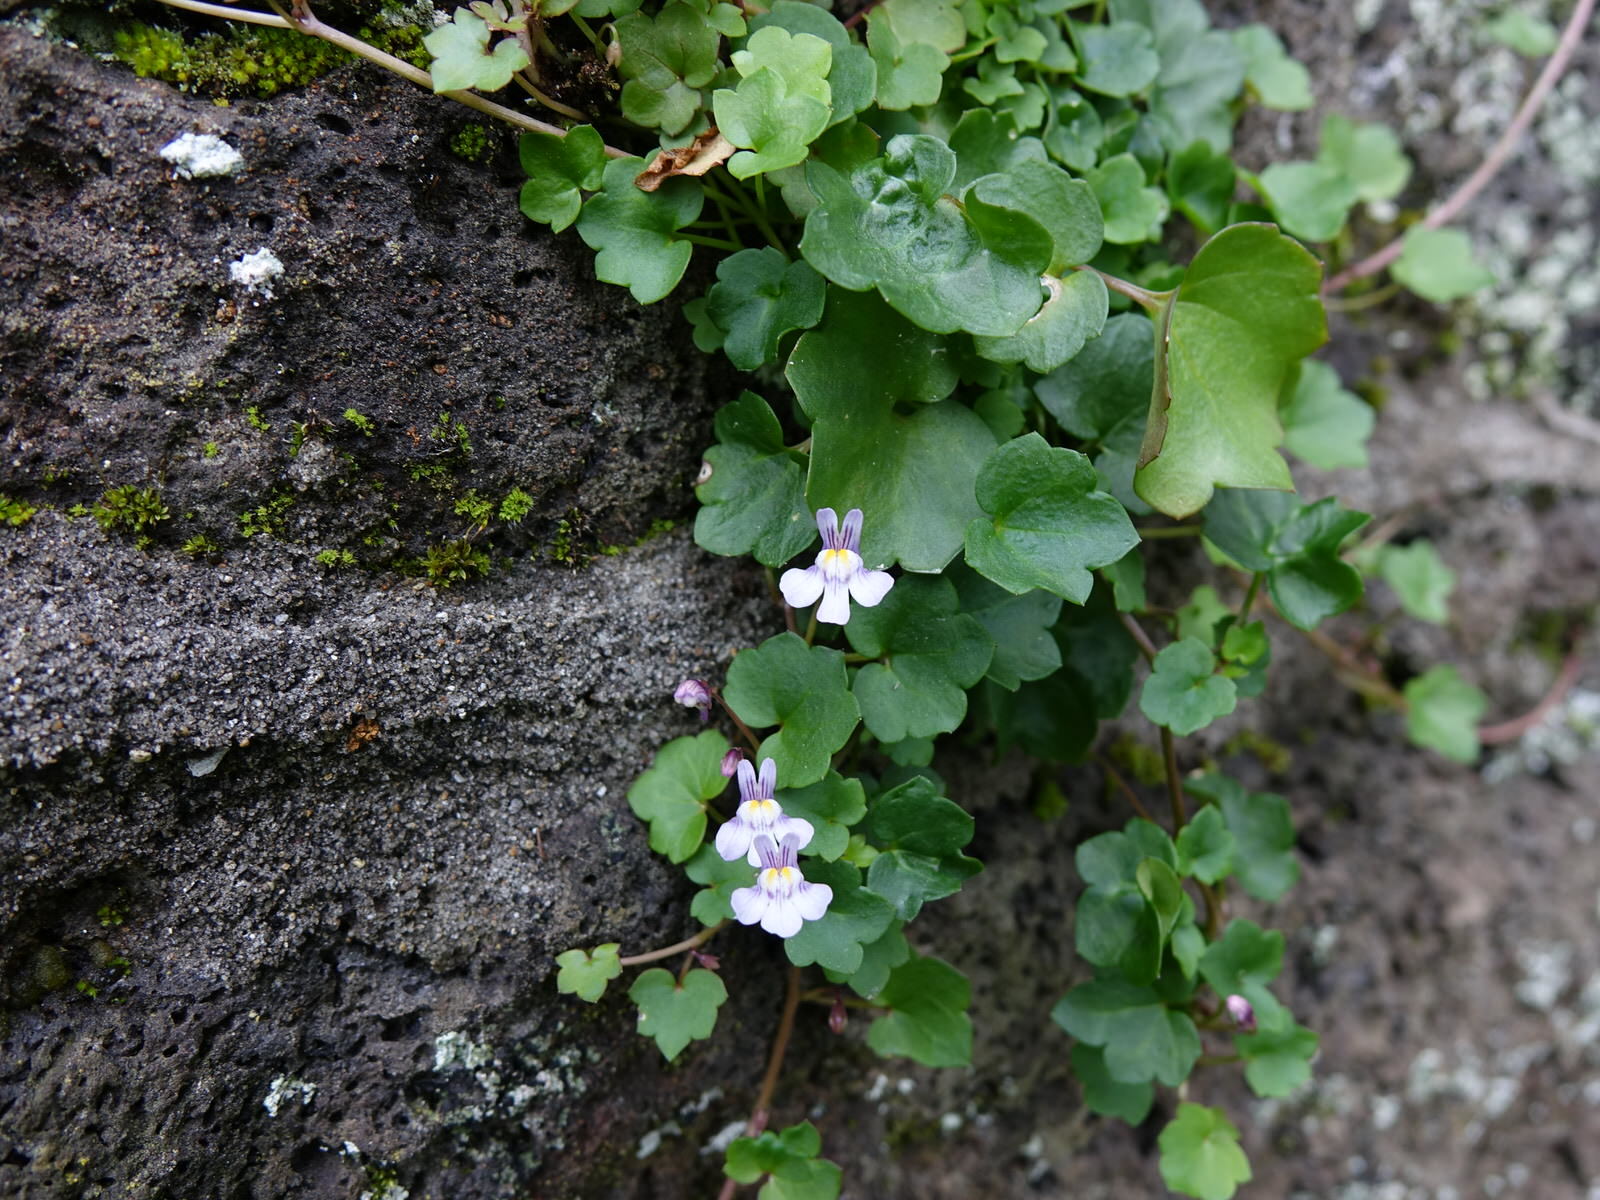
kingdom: Plantae
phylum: Tracheophyta
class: Magnoliopsida
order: Lamiales
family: Plantaginaceae
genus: Cymbalaria
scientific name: Cymbalaria muralis
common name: Ivy-leaved toadflax
